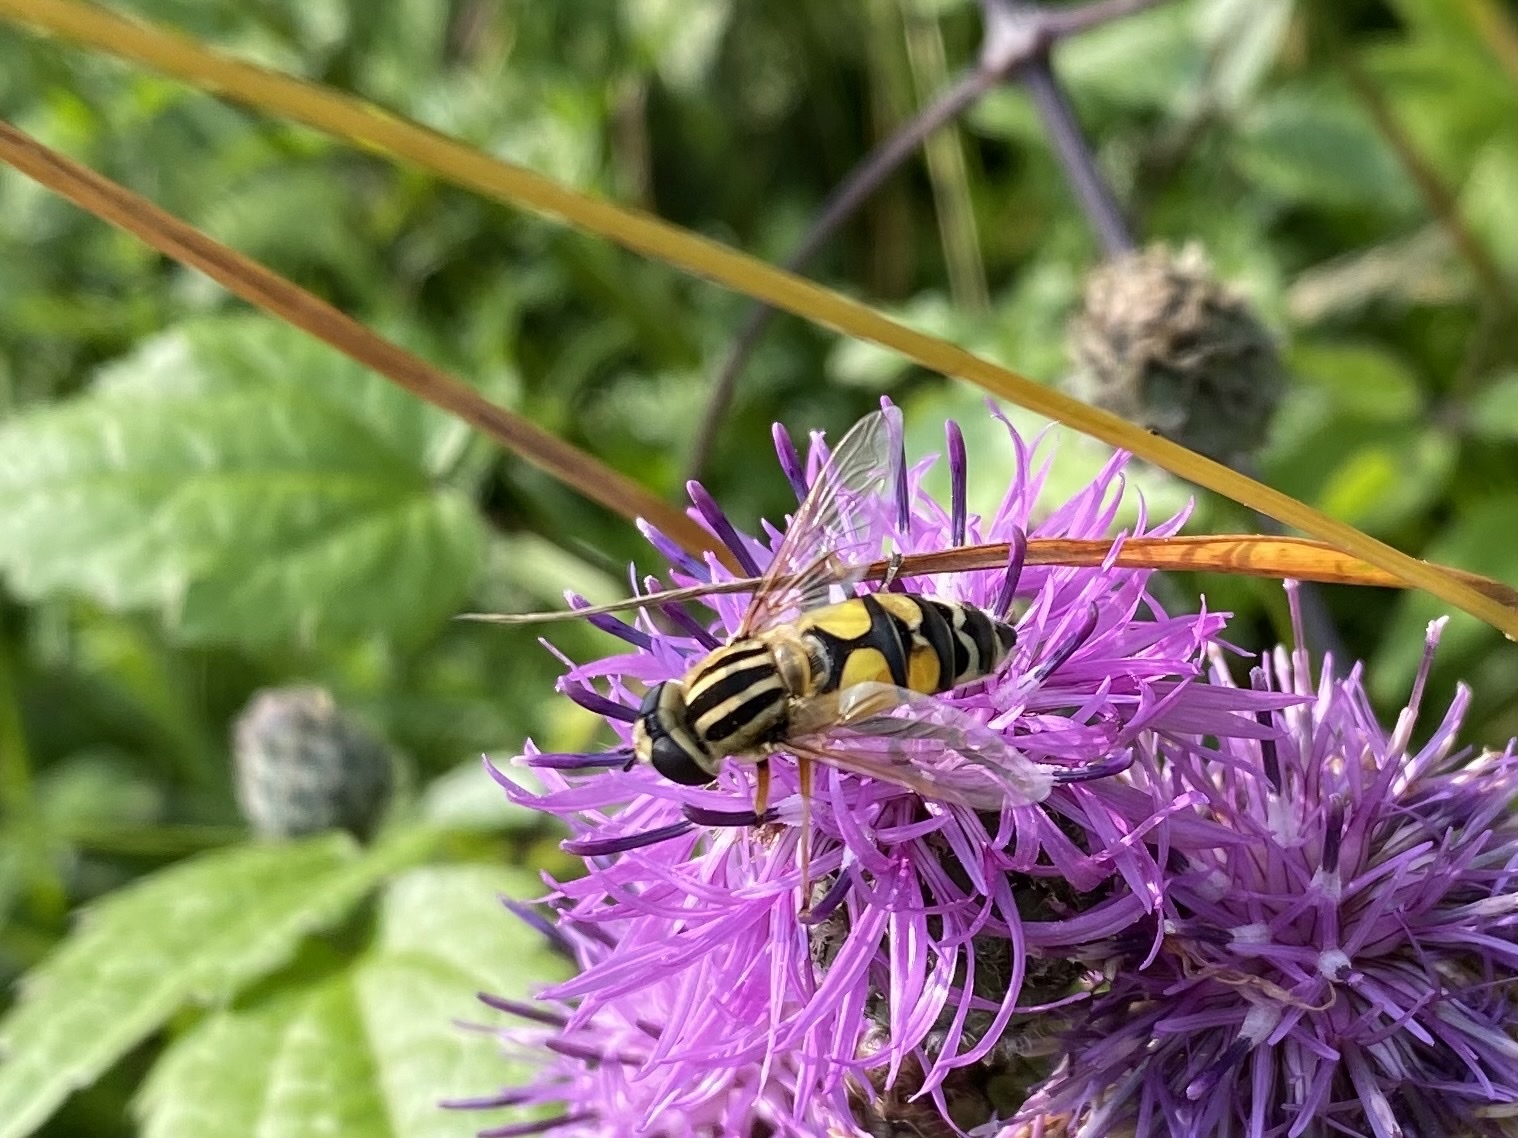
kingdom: Animalia
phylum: Arthropoda
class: Insecta
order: Diptera
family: Syrphidae
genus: Helophilus
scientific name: Helophilus trivittatus
